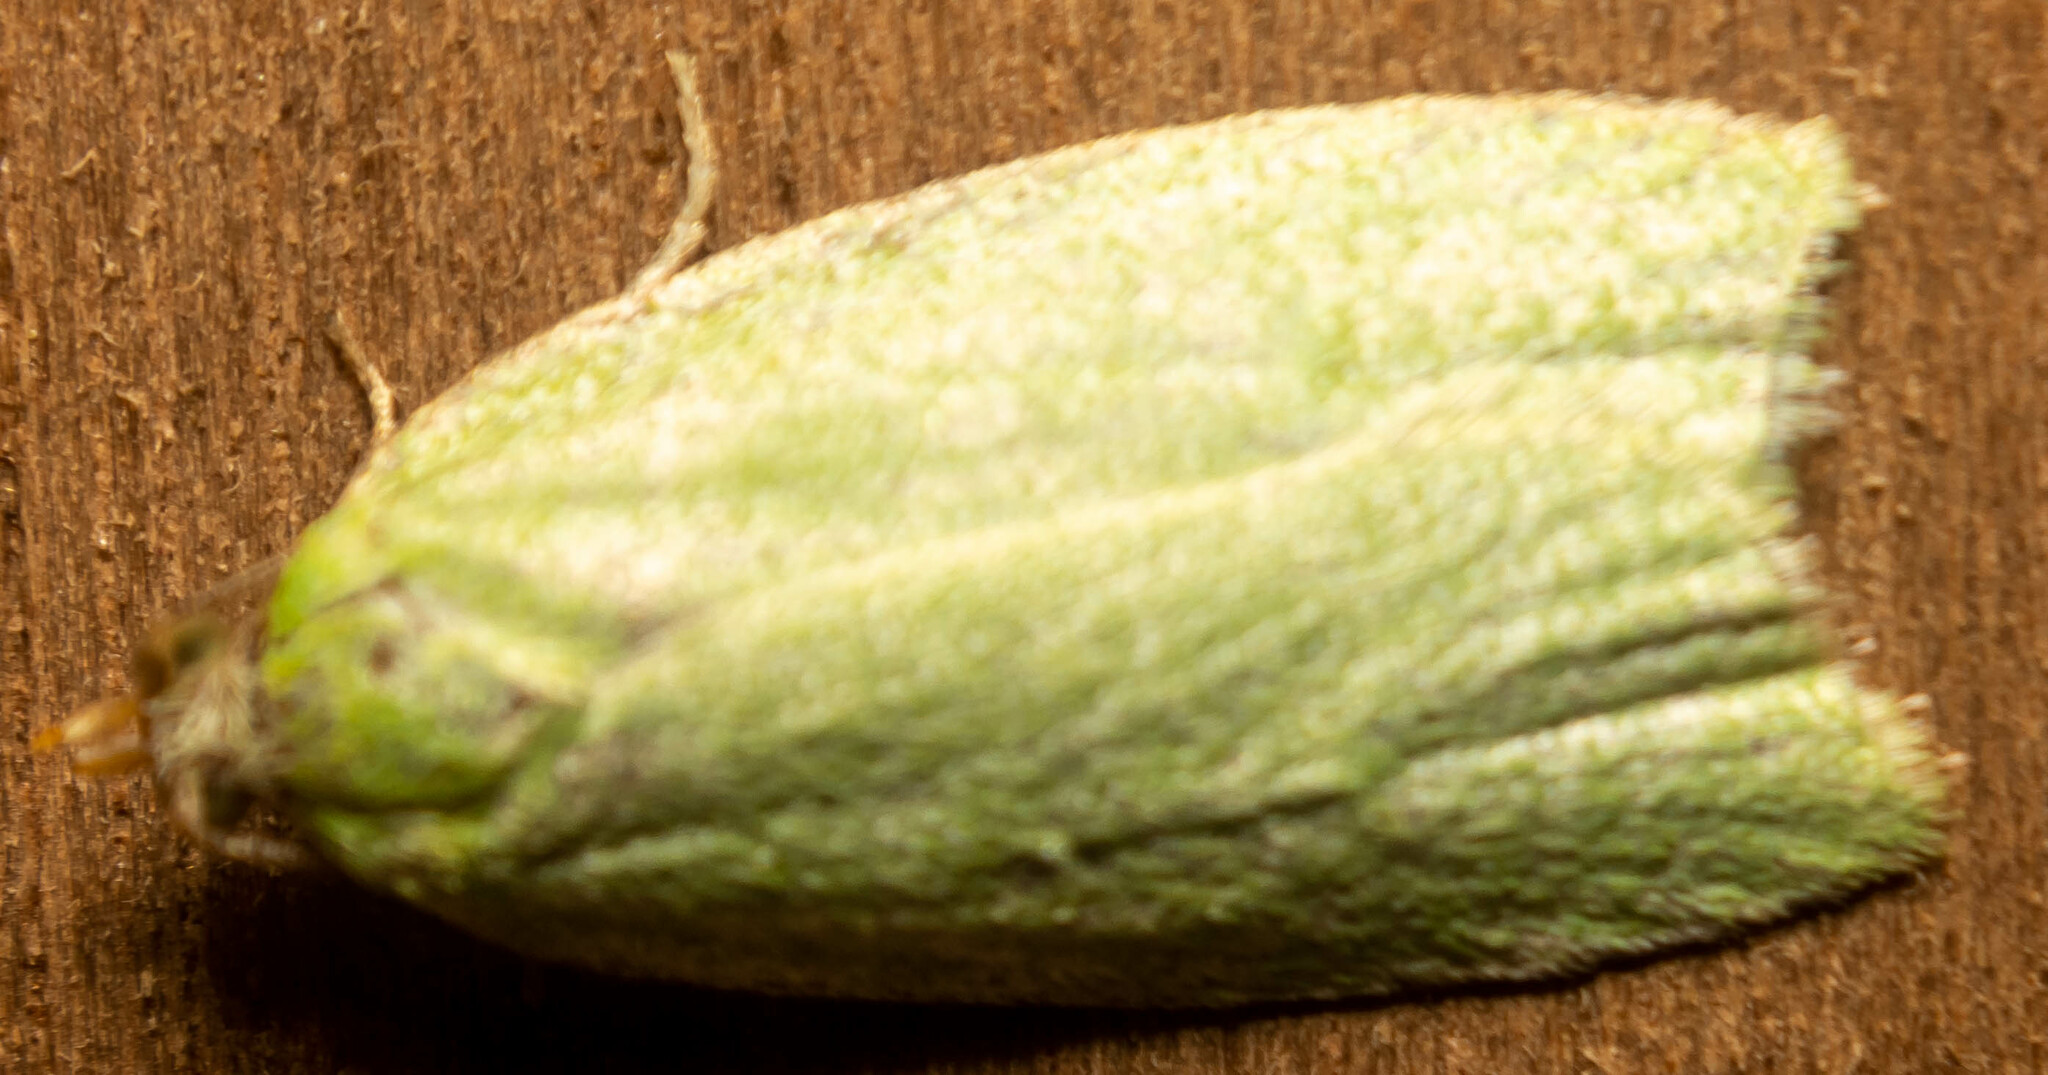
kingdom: Animalia
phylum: Arthropoda
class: Insecta
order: Lepidoptera
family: Tortricidae
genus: Tortrix
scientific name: Tortrix viridana
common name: Green oak tortrix
